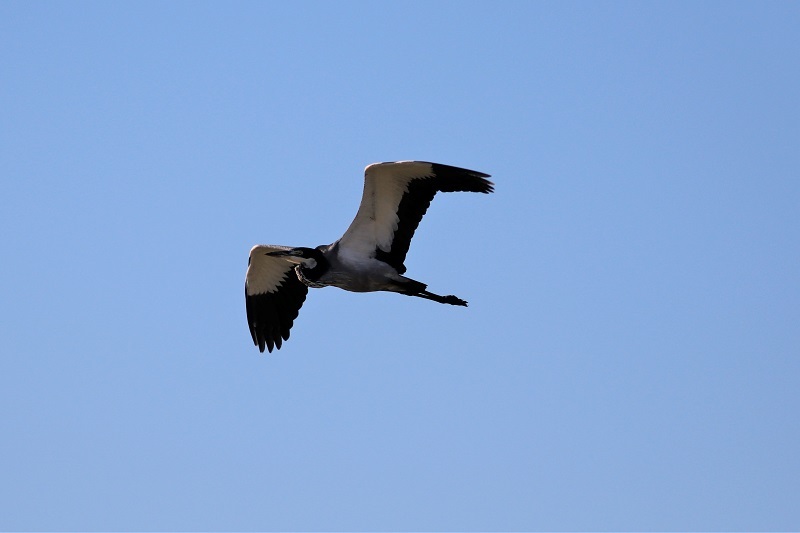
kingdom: Animalia
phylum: Chordata
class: Aves
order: Pelecaniformes
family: Ardeidae
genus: Ardea
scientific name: Ardea melanocephala
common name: Black-headed heron
